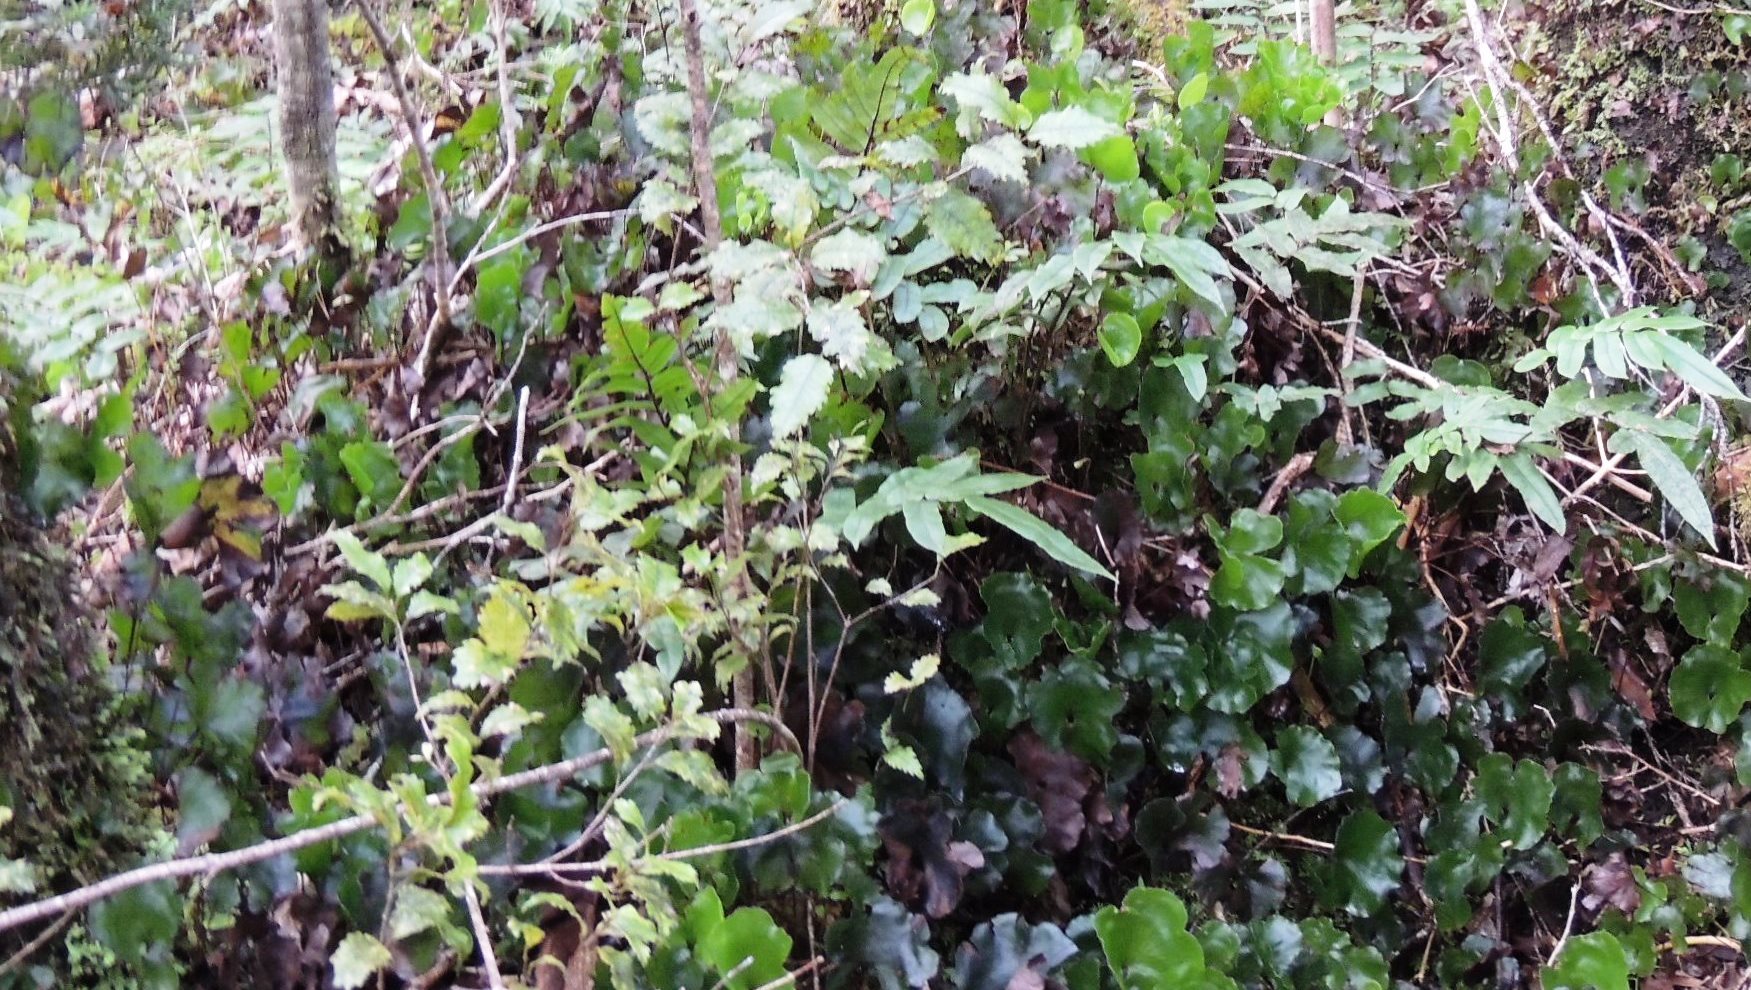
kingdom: Plantae
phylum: Tracheophyta
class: Polypodiopsida
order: Hymenophyllales
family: Hymenophyllaceae
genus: Hymenophyllum
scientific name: Hymenophyllum nephrophyllum
